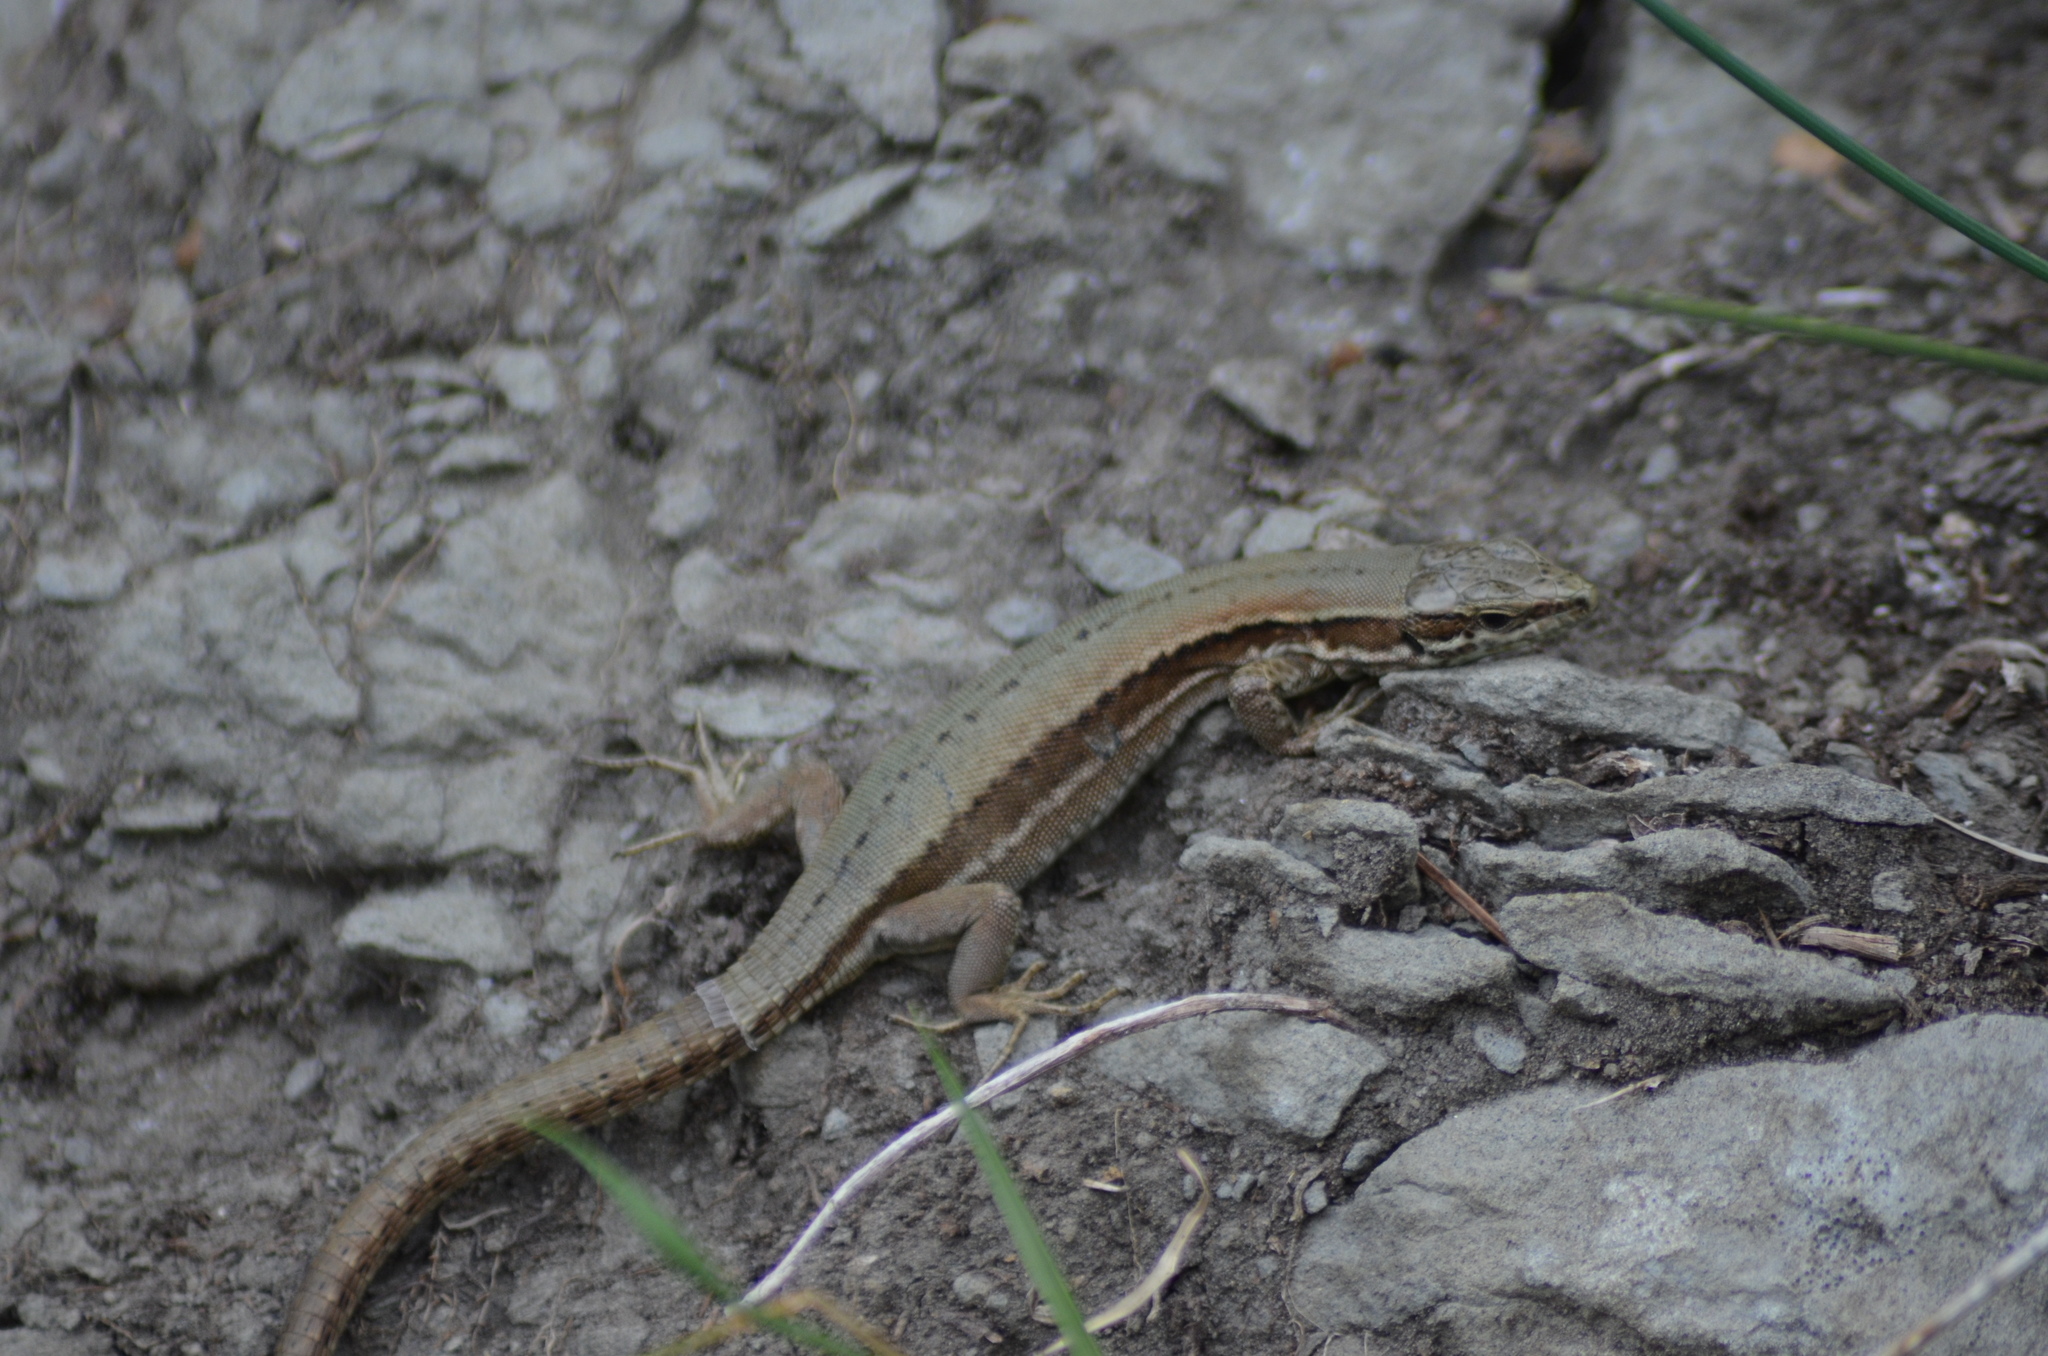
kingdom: Animalia
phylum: Chordata
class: Squamata
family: Lacertidae
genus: Podarcis
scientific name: Podarcis muralis
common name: Common wall lizard
